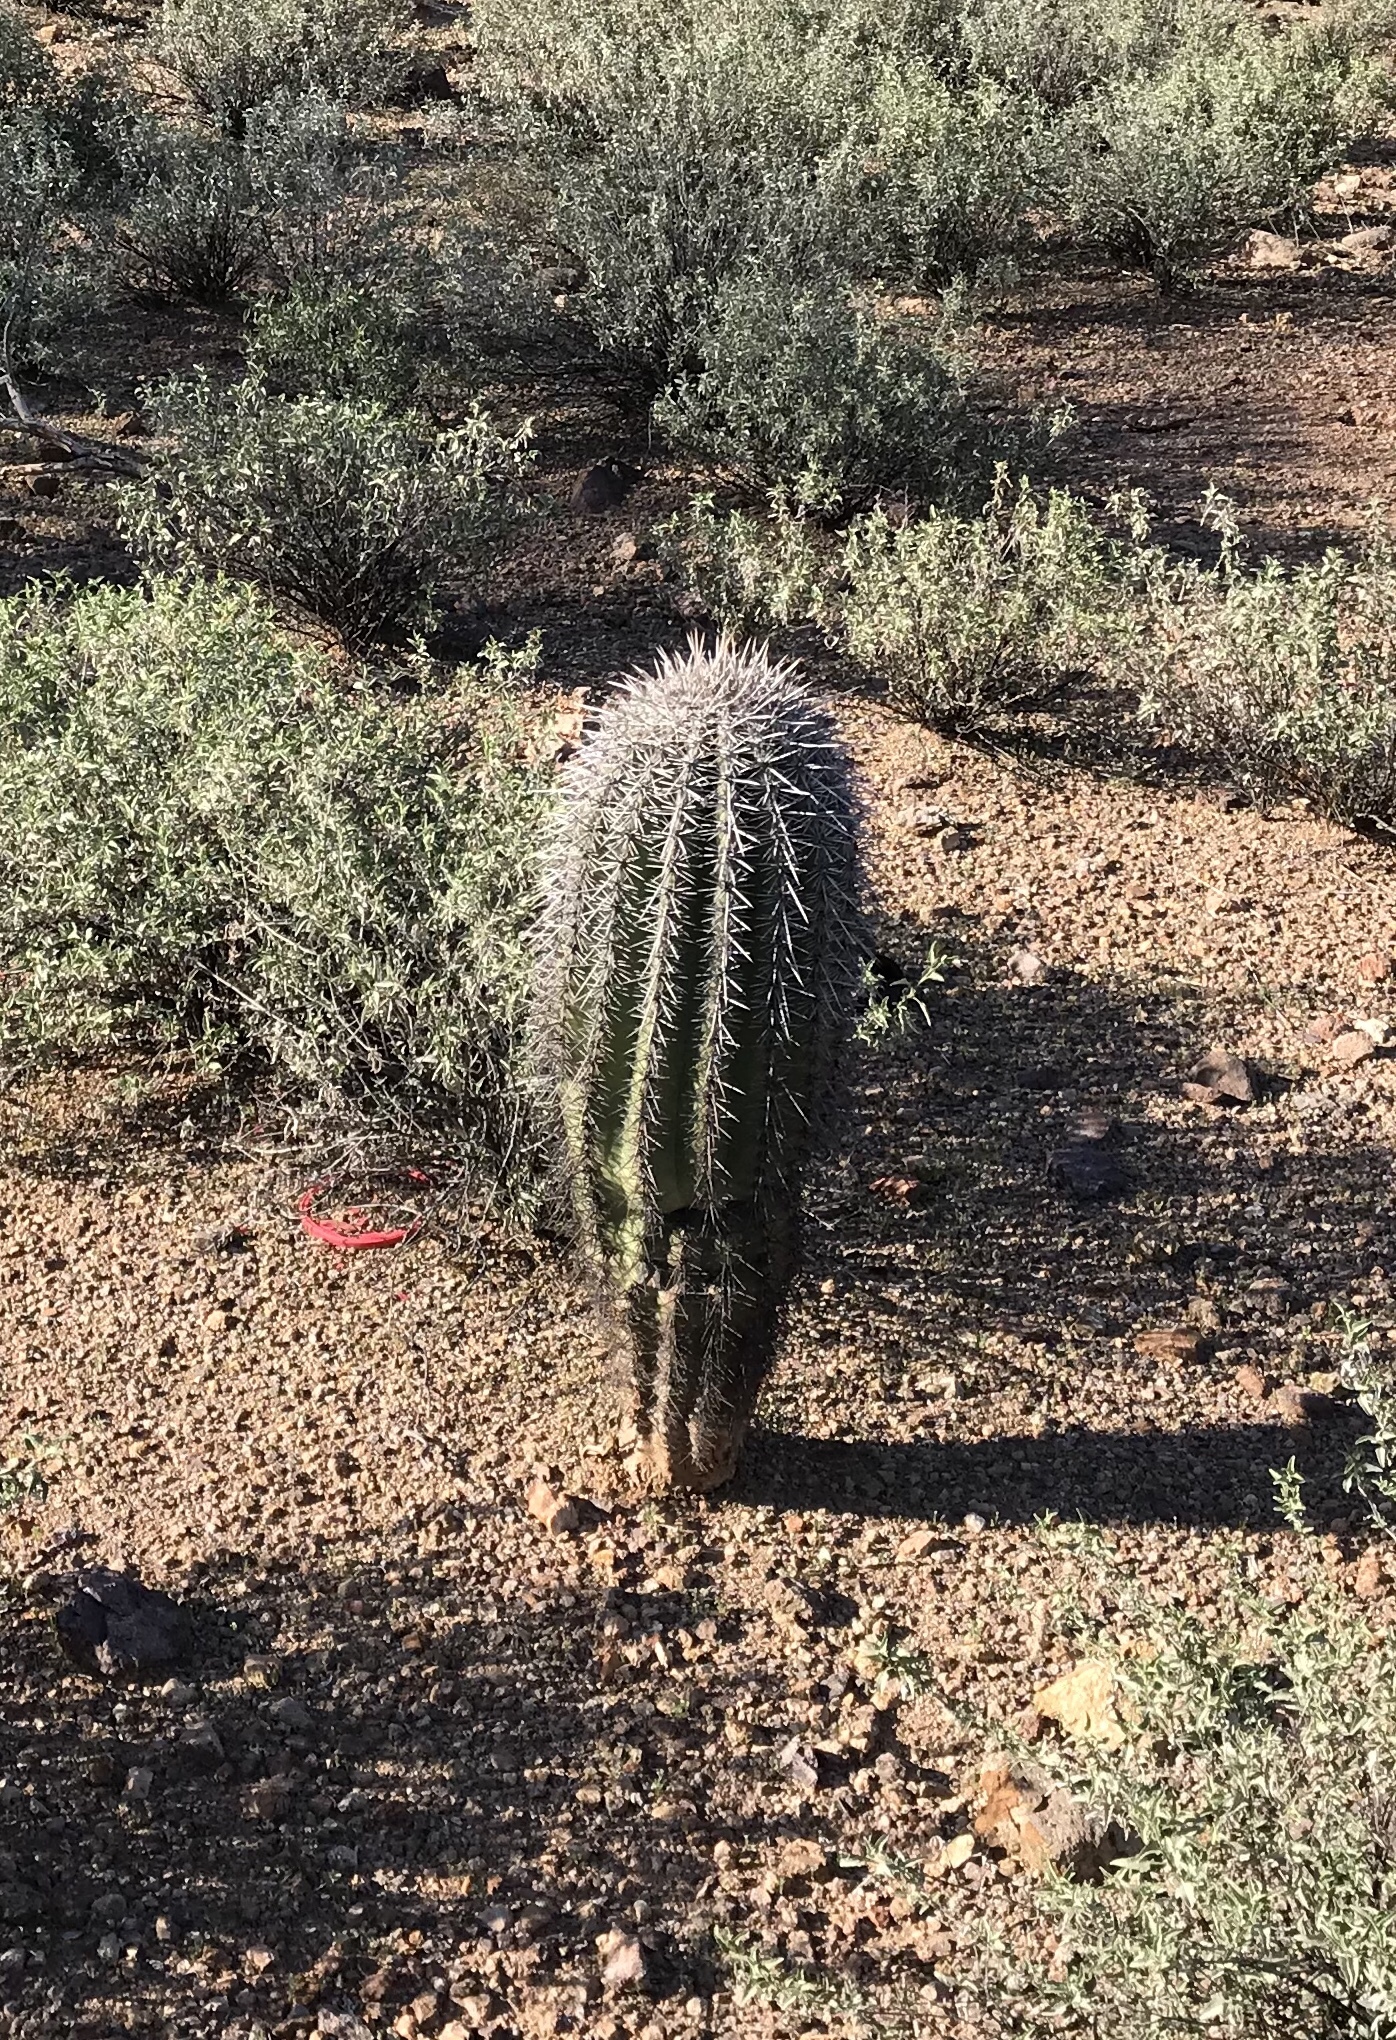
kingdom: Plantae
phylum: Tracheophyta
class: Magnoliopsida
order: Caryophyllales
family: Cactaceae
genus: Carnegiea
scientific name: Carnegiea gigantea
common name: Saguaro
